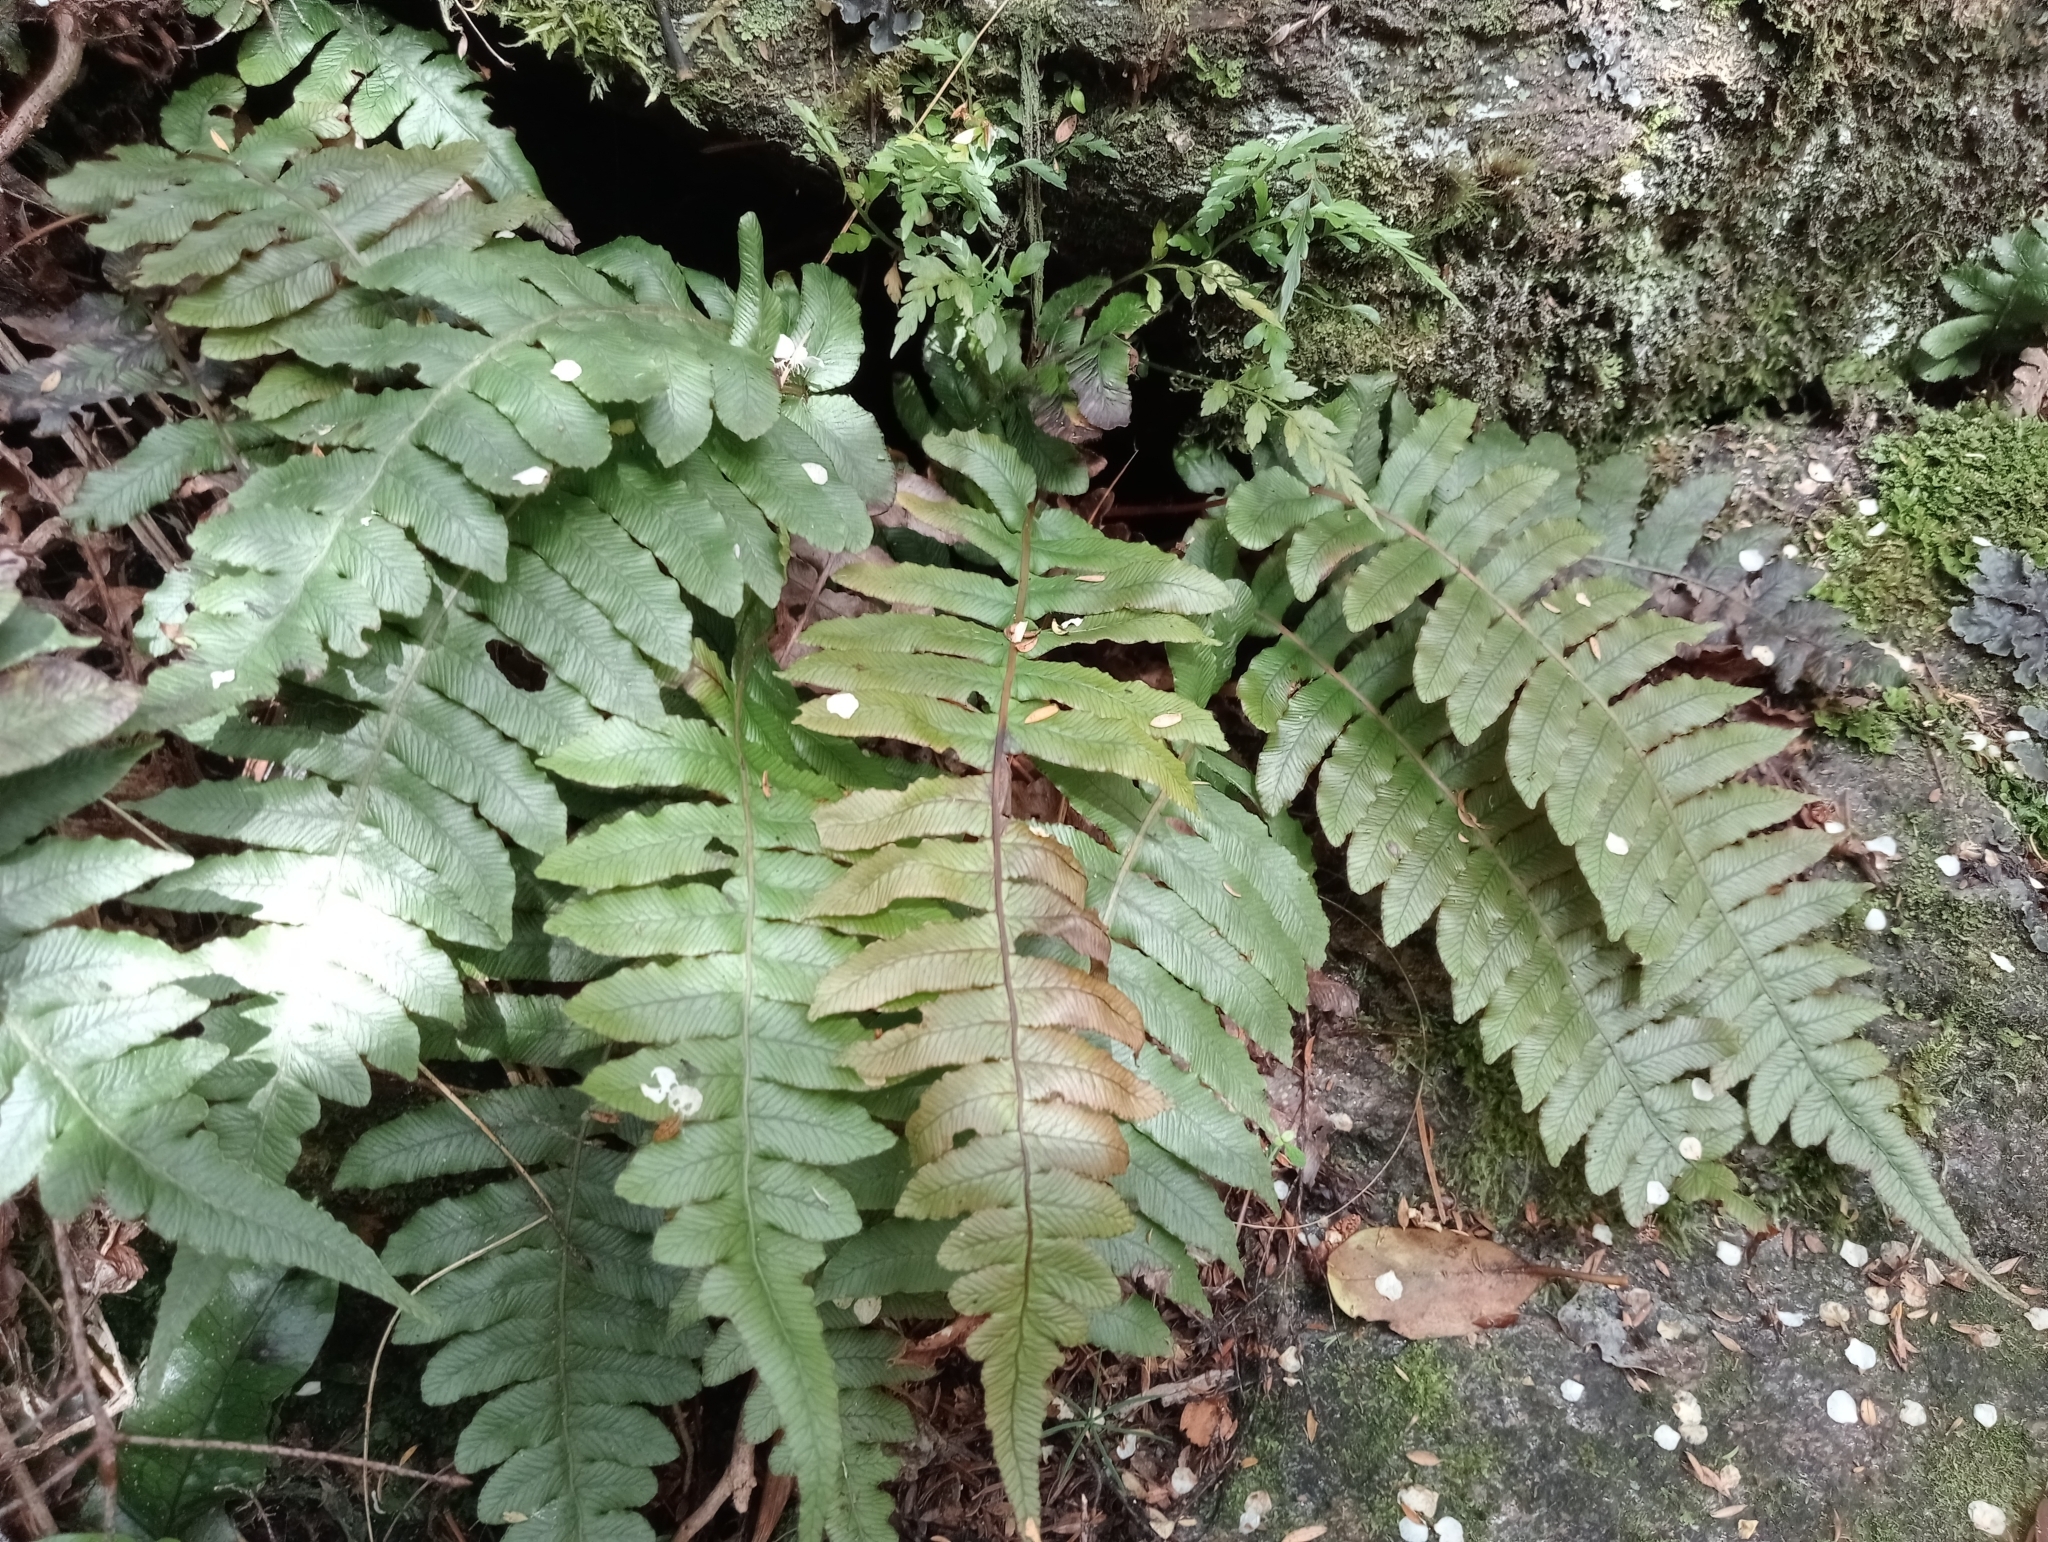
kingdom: Plantae
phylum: Tracheophyta
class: Polypodiopsida
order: Polypodiales
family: Blechnaceae
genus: Cranfillia
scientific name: Cranfillia deltoides
